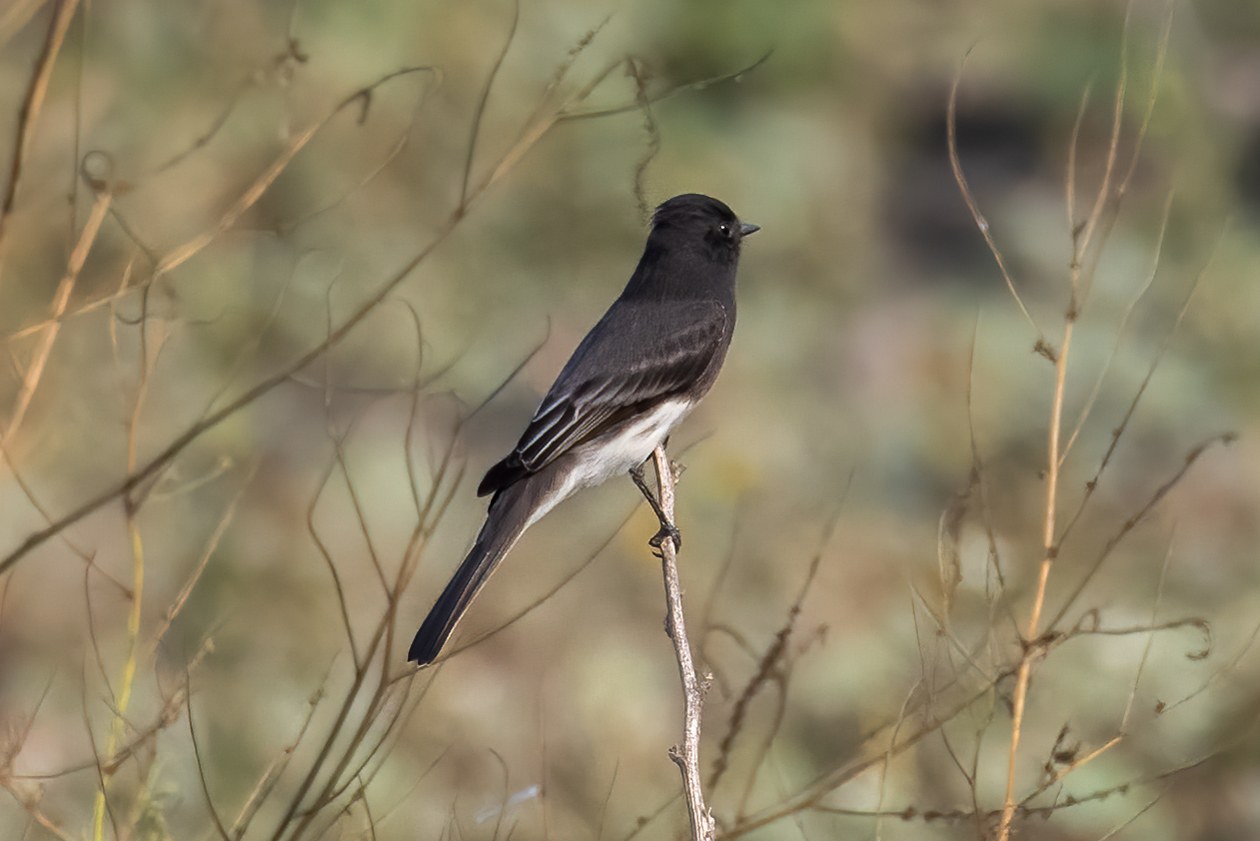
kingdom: Animalia
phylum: Chordata
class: Aves
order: Passeriformes
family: Tyrannidae
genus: Sayornis
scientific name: Sayornis nigricans
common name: Black phoebe
